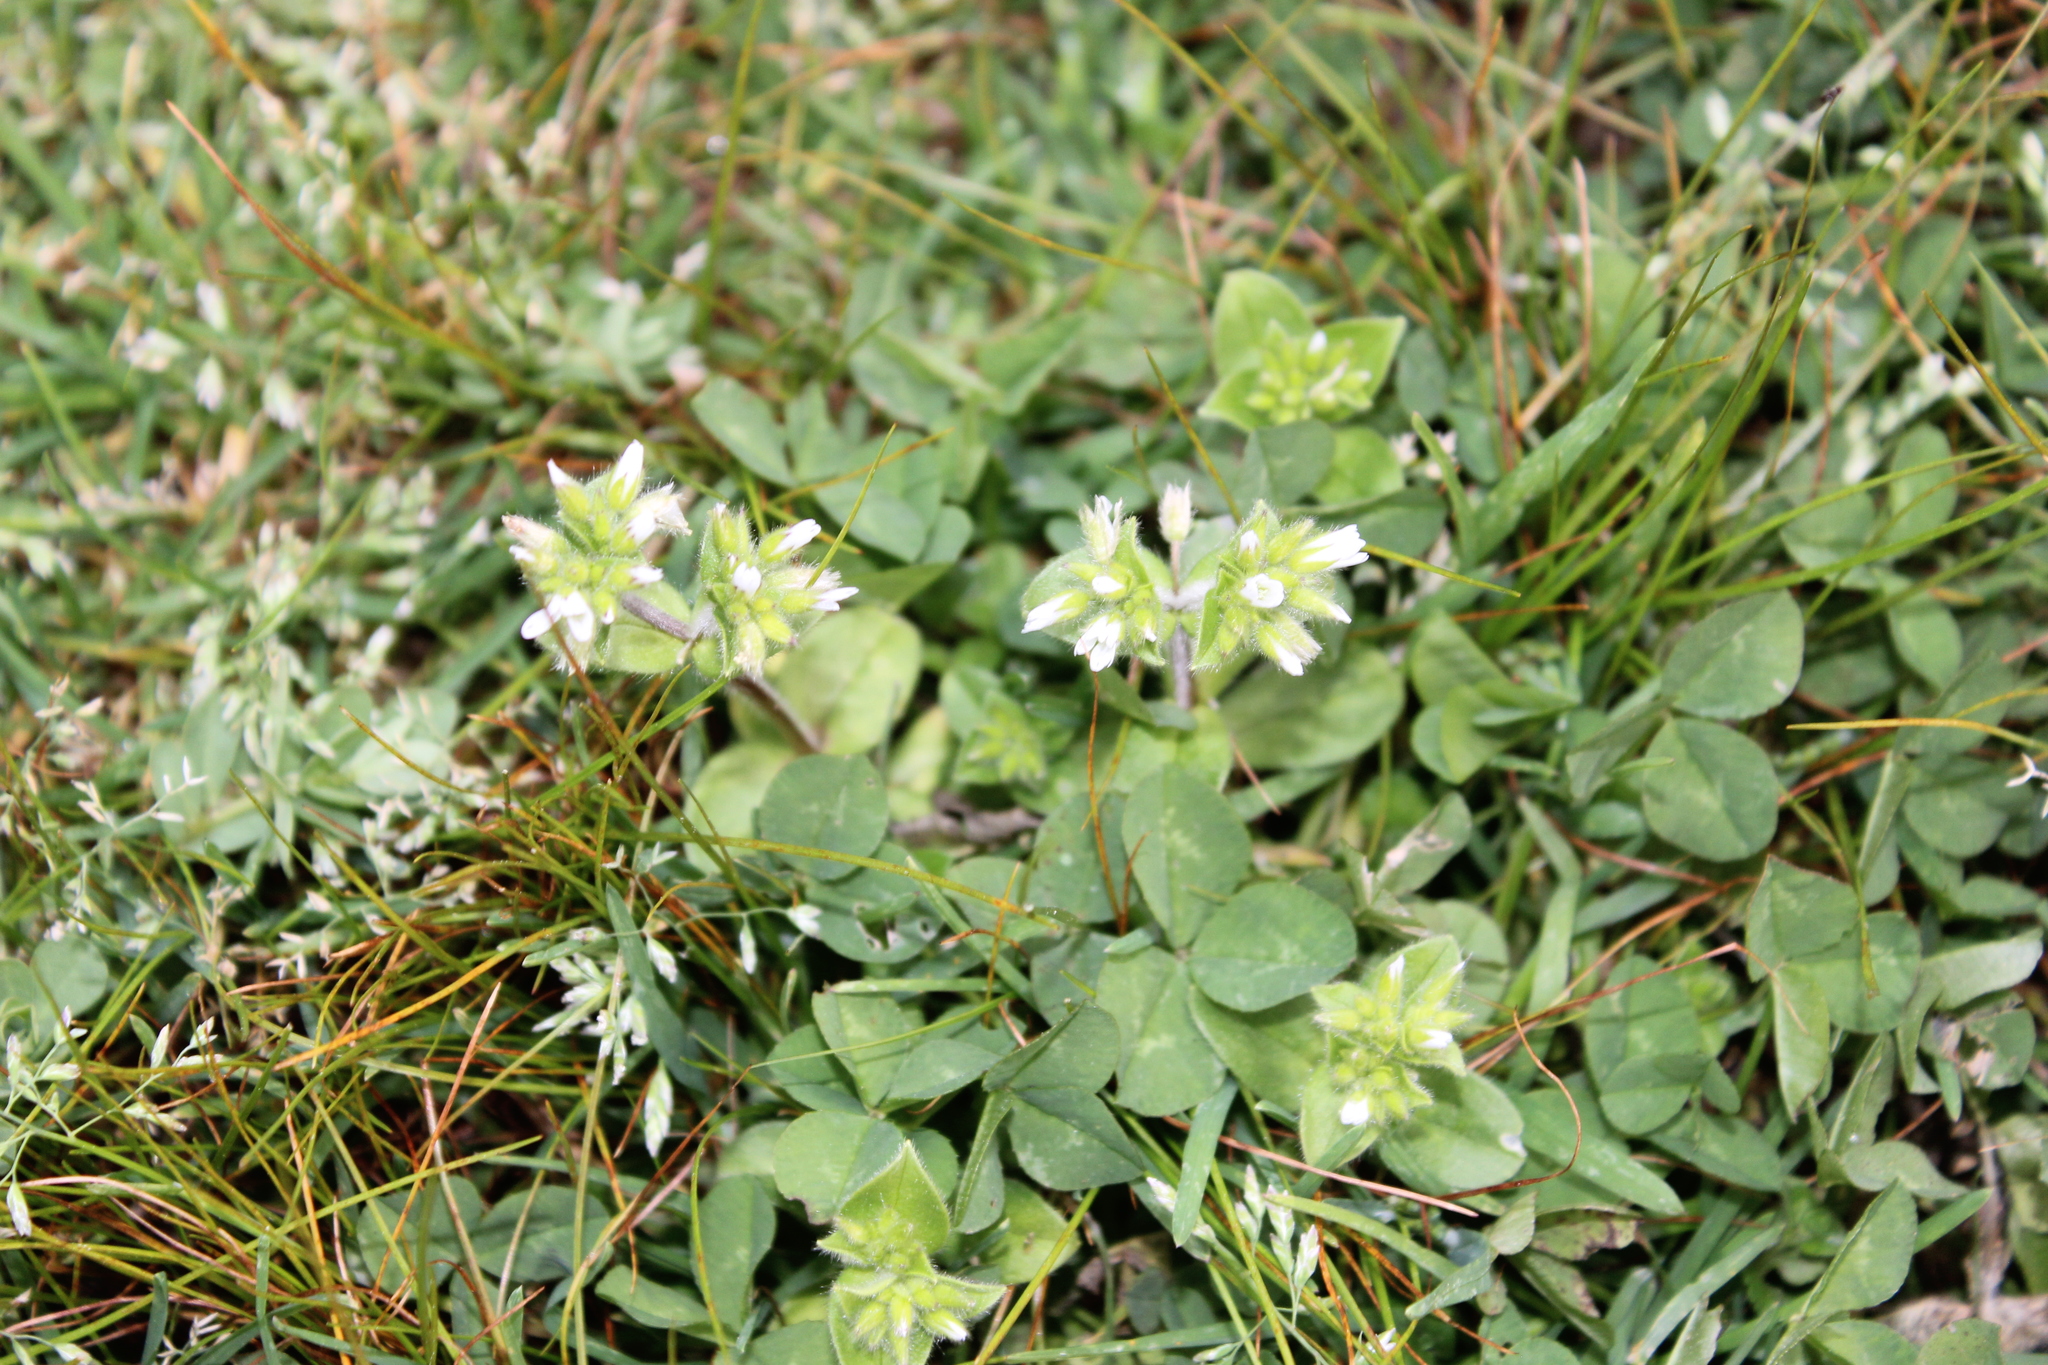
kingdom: Plantae
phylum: Tracheophyta
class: Magnoliopsida
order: Caryophyllales
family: Caryophyllaceae
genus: Cerastium
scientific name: Cerastium glomeratum
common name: Sticky chickweed
